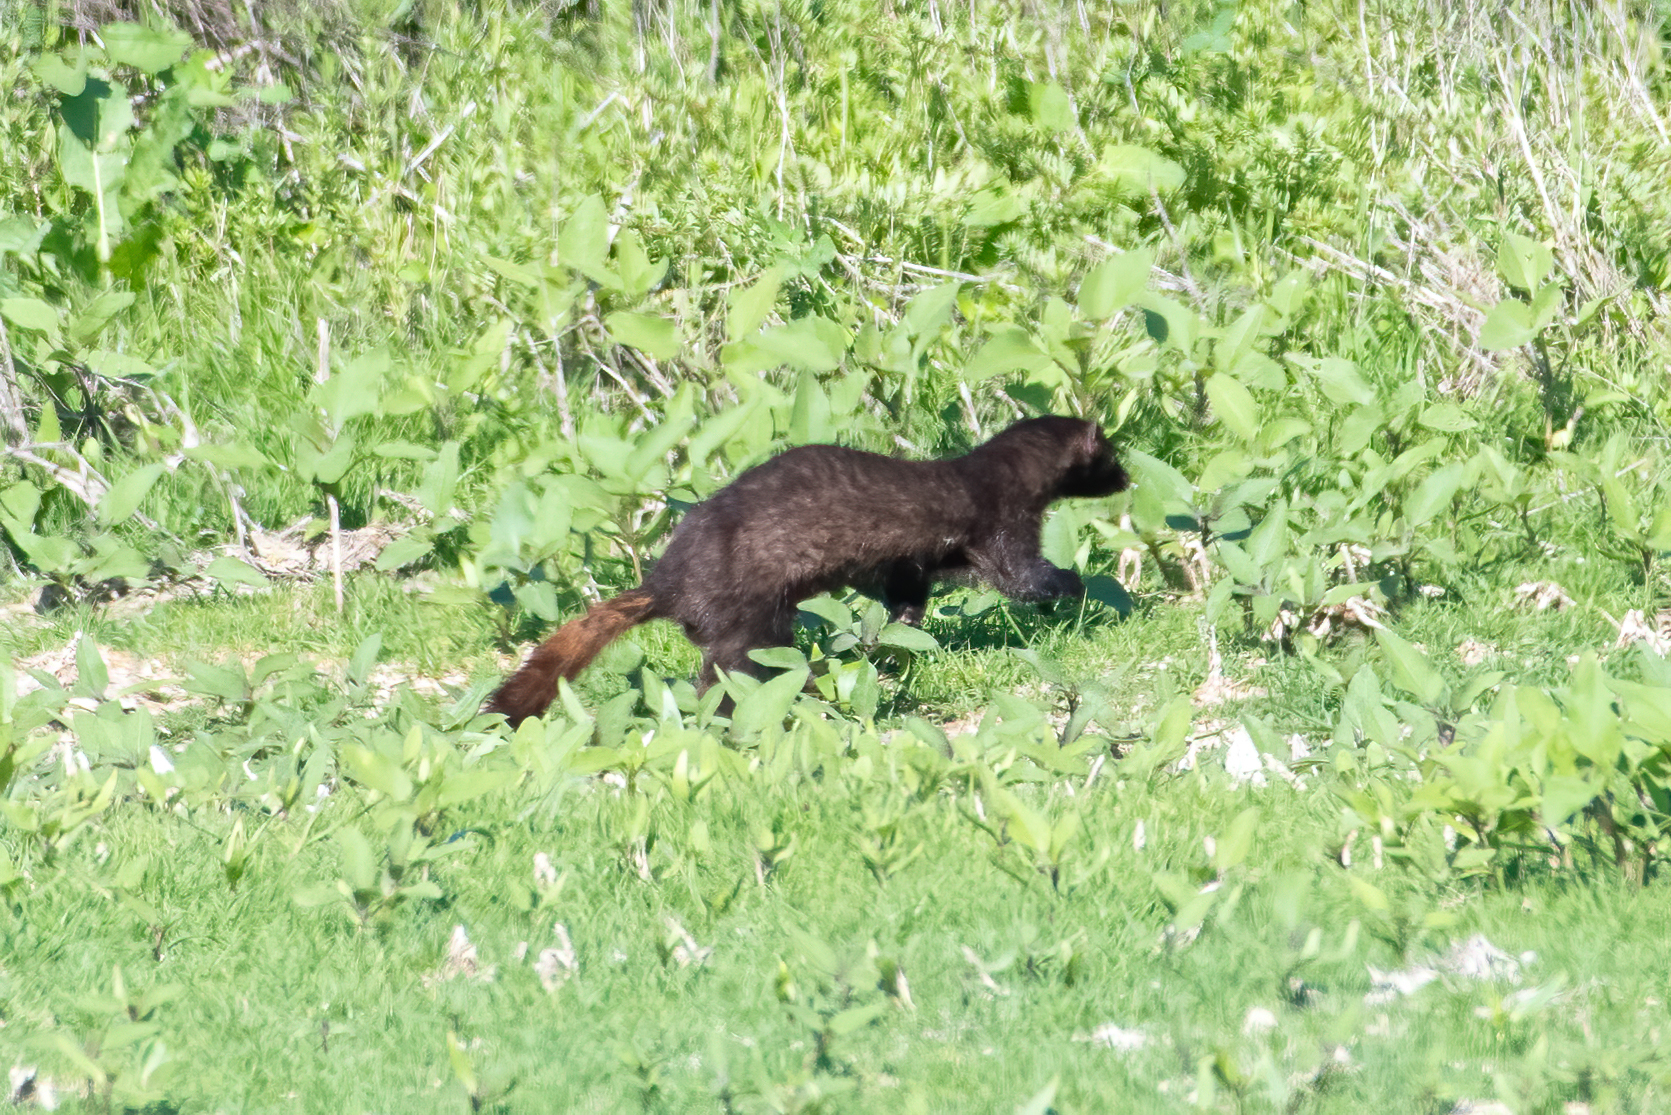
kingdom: Animalia
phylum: Chordata
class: Mammalia
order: Carnivora
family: Mustelidae
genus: Mustela
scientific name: Mustela
